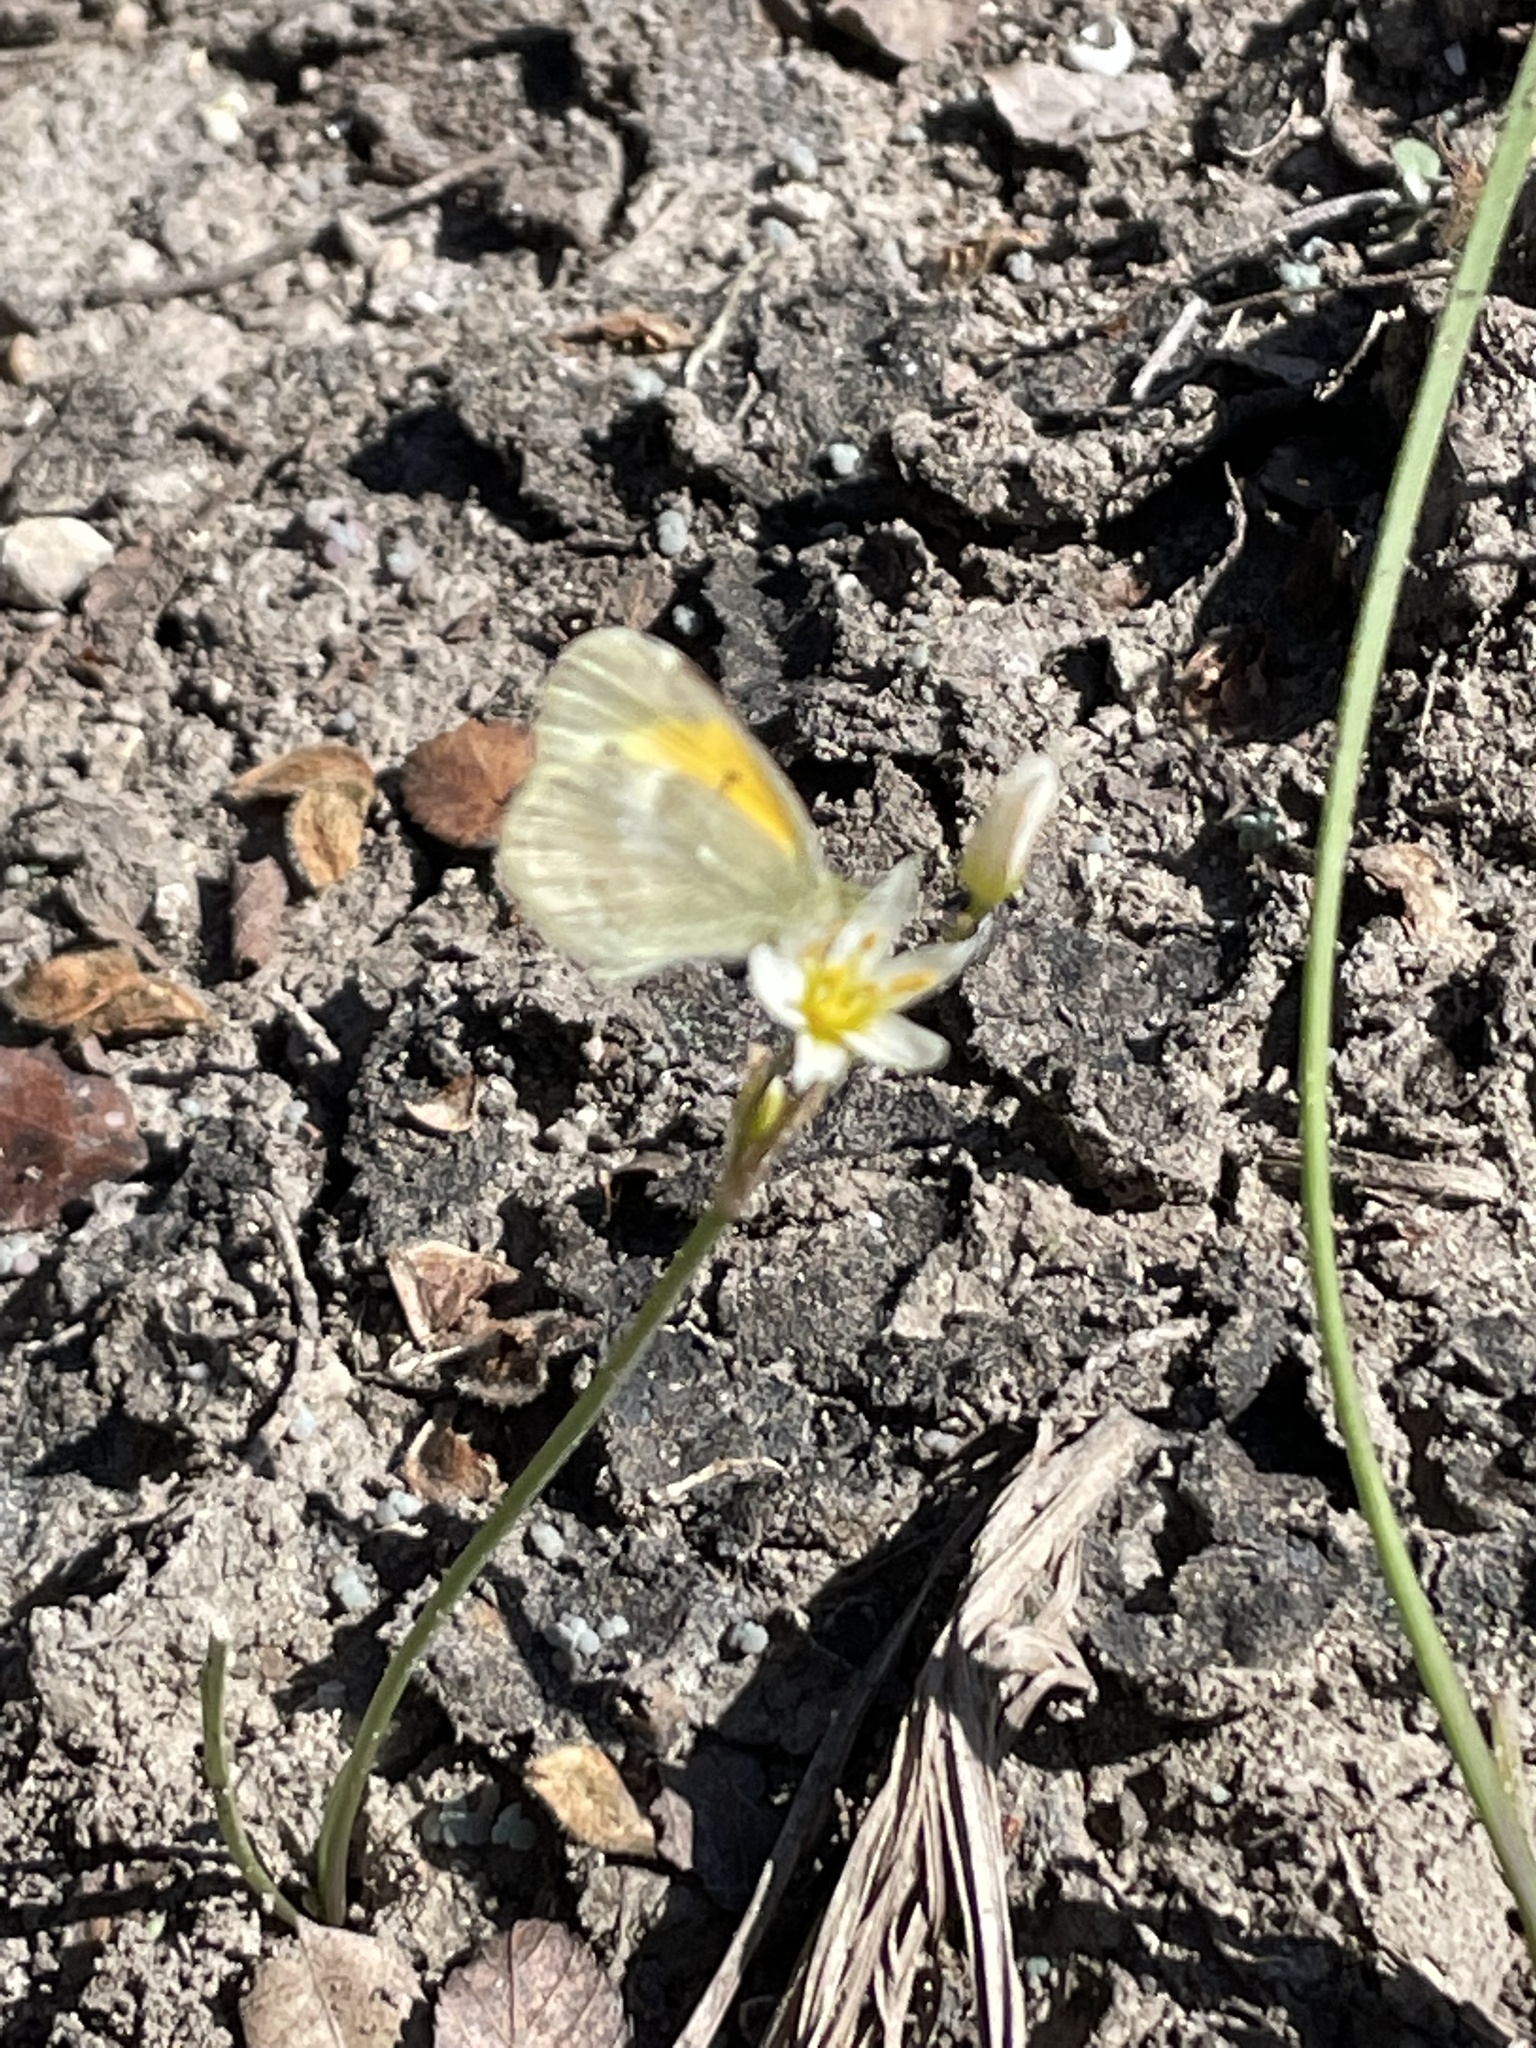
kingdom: Animalia
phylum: Arthropoda
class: Insecta
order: Lepidoptera
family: Pieridae
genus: Nathalis
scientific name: Nathalis iole
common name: Dainty sulphur
